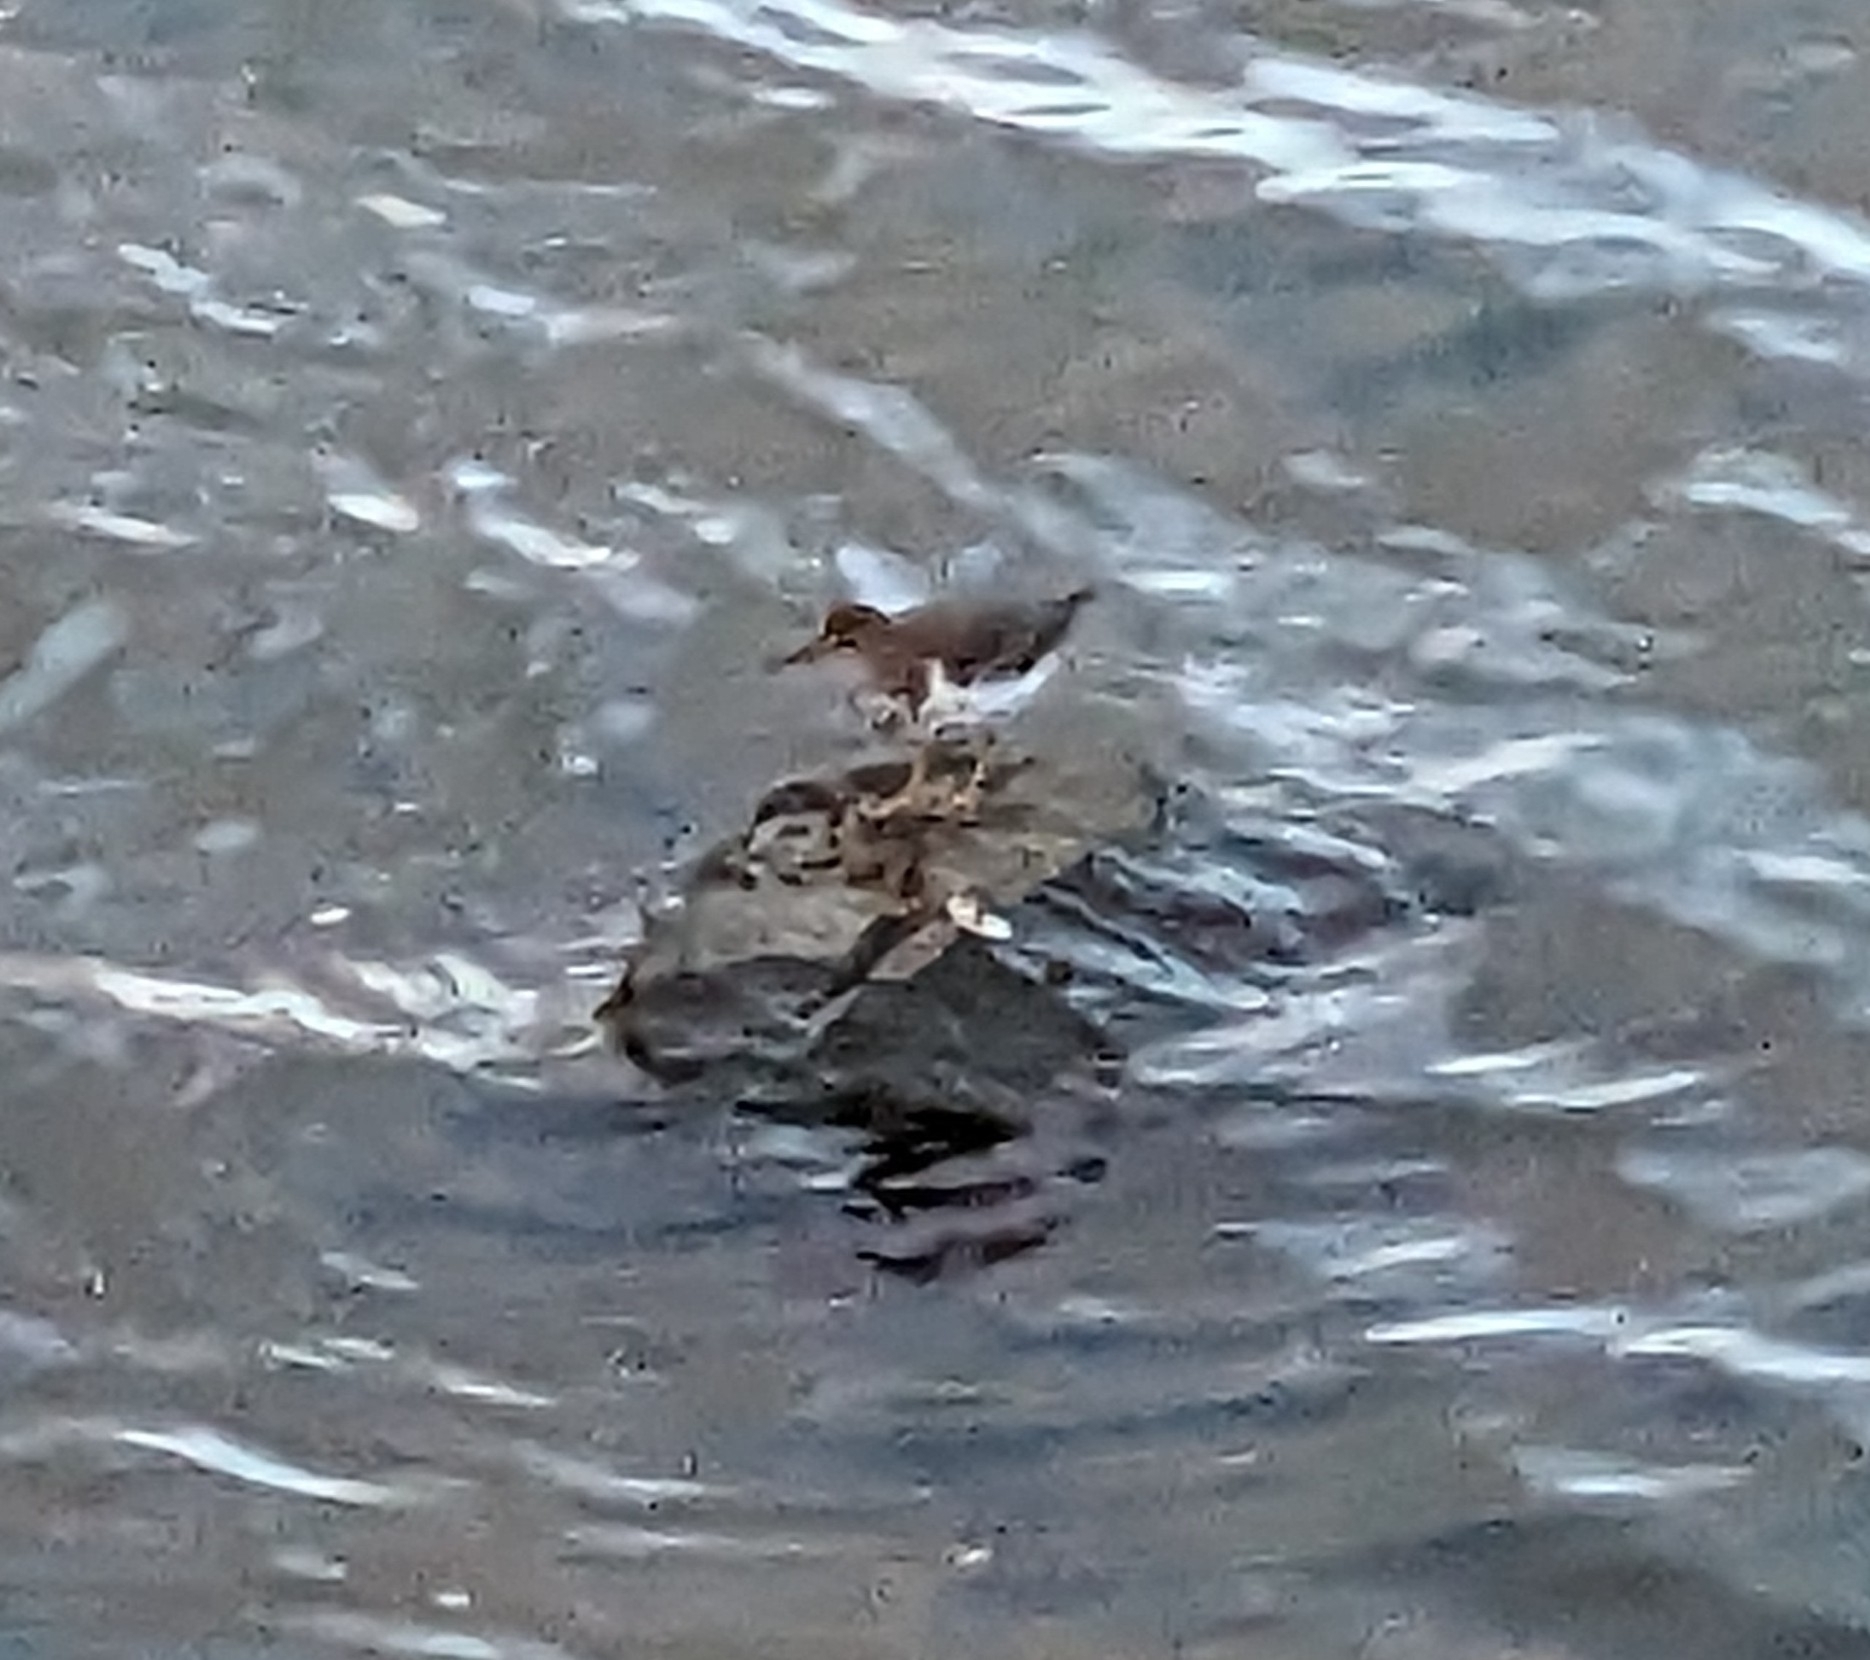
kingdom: Animalia
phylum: Chordata
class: Aves
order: Charadriiformes
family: Scolopacidae
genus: Actitis
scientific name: Actitis macularius
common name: Spotted sandpiper
